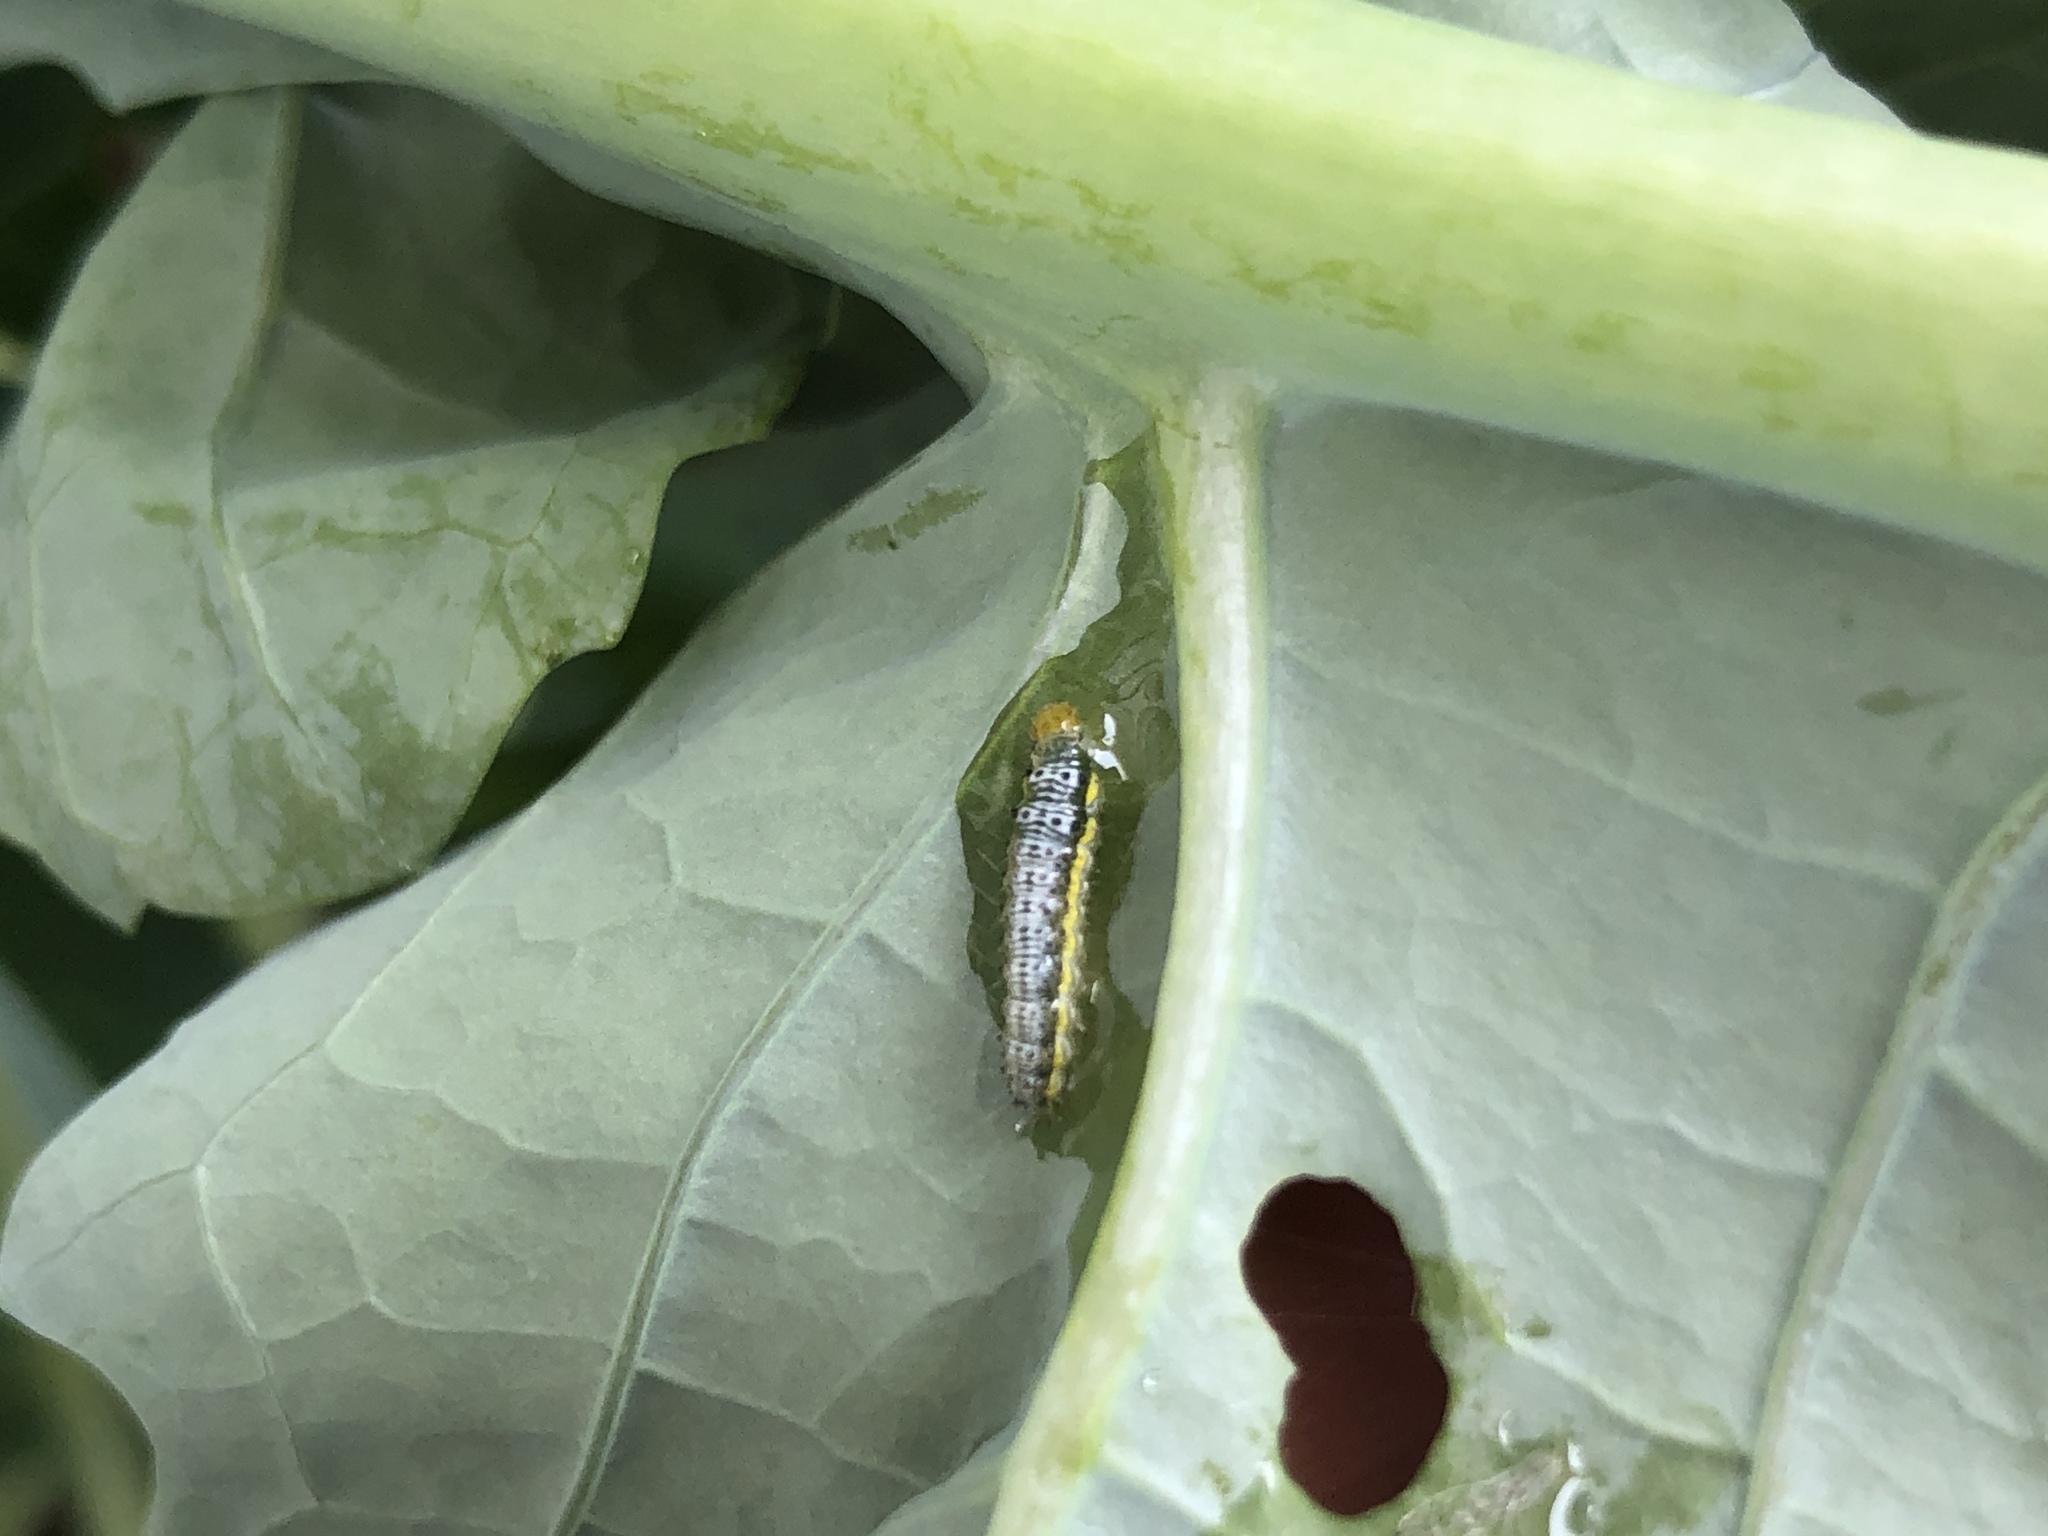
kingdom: Animalia
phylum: Arthropoda
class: Insecta
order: Lepidoptera
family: Crambidae
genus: Evergestis
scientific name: Evergestis rimosalis
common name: Cross-striped cabbageworm moth
